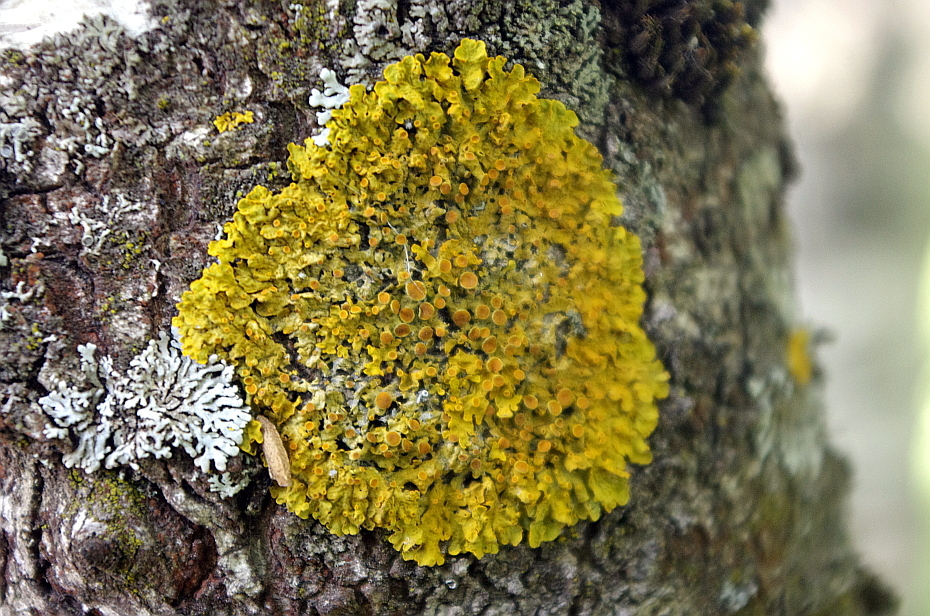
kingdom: Fungi
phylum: Ascomycota
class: Lecanoromycetes
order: Teloschistales
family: Teloschistaceae
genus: Xanthoria
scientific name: Xanthoria parietina
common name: Common orange lichen
